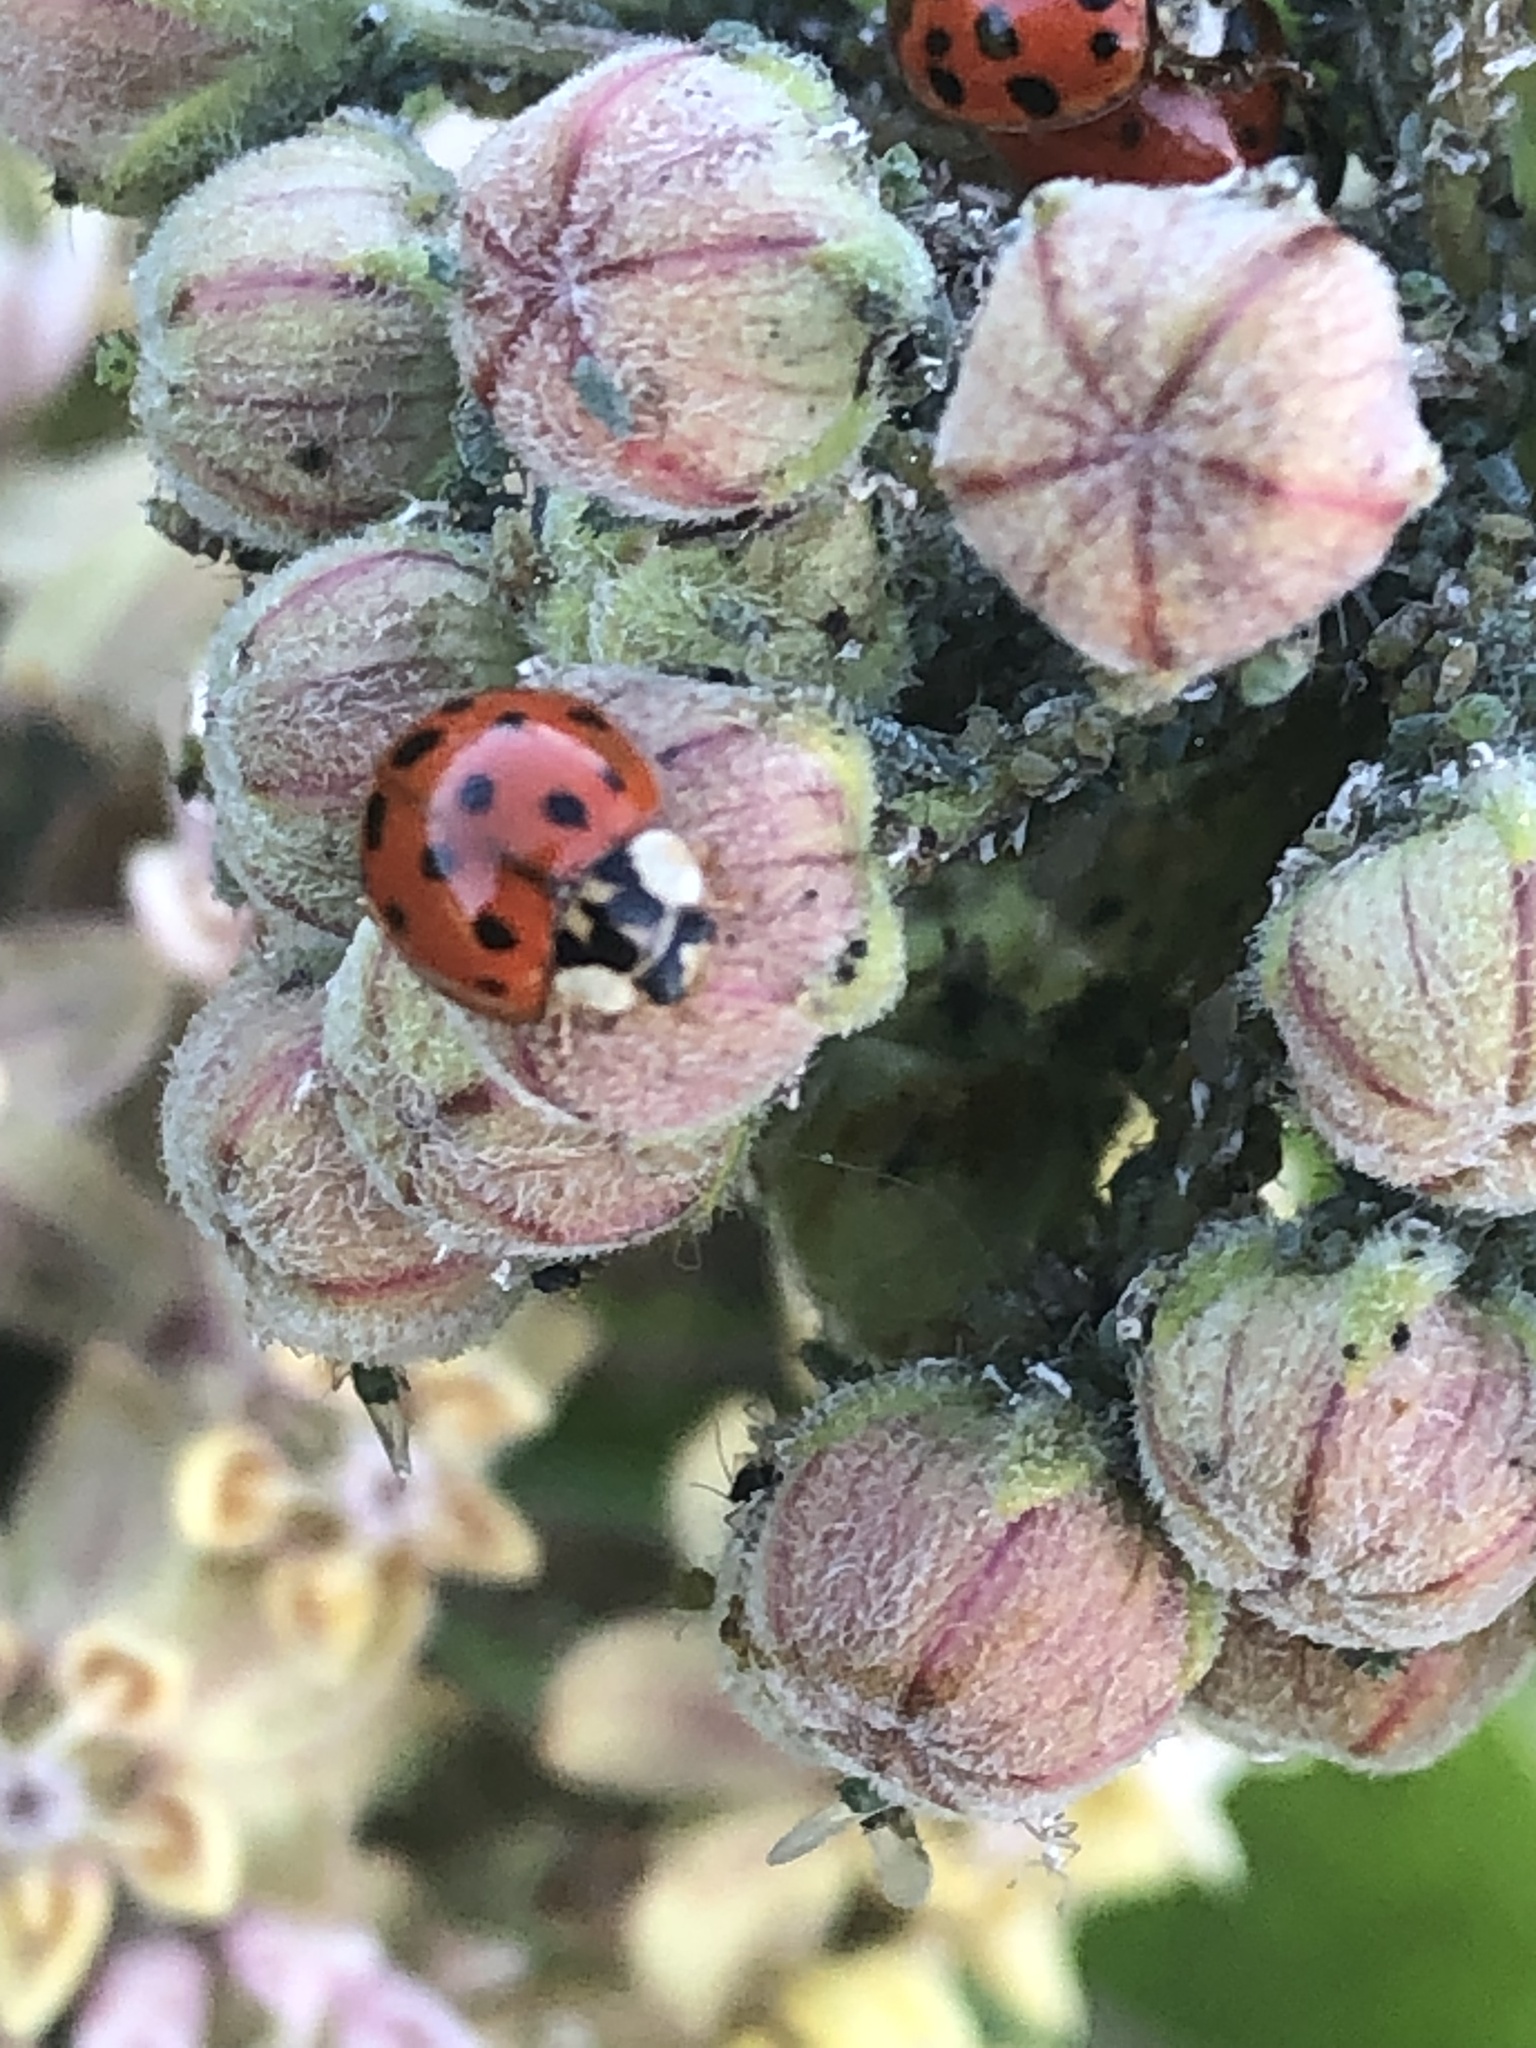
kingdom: Animalia
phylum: Arthropoda
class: Insecta
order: Coleoptera
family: Coccinellidae
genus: Harmonia
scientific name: Harmonia axyridis
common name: Harlequin ladybird
